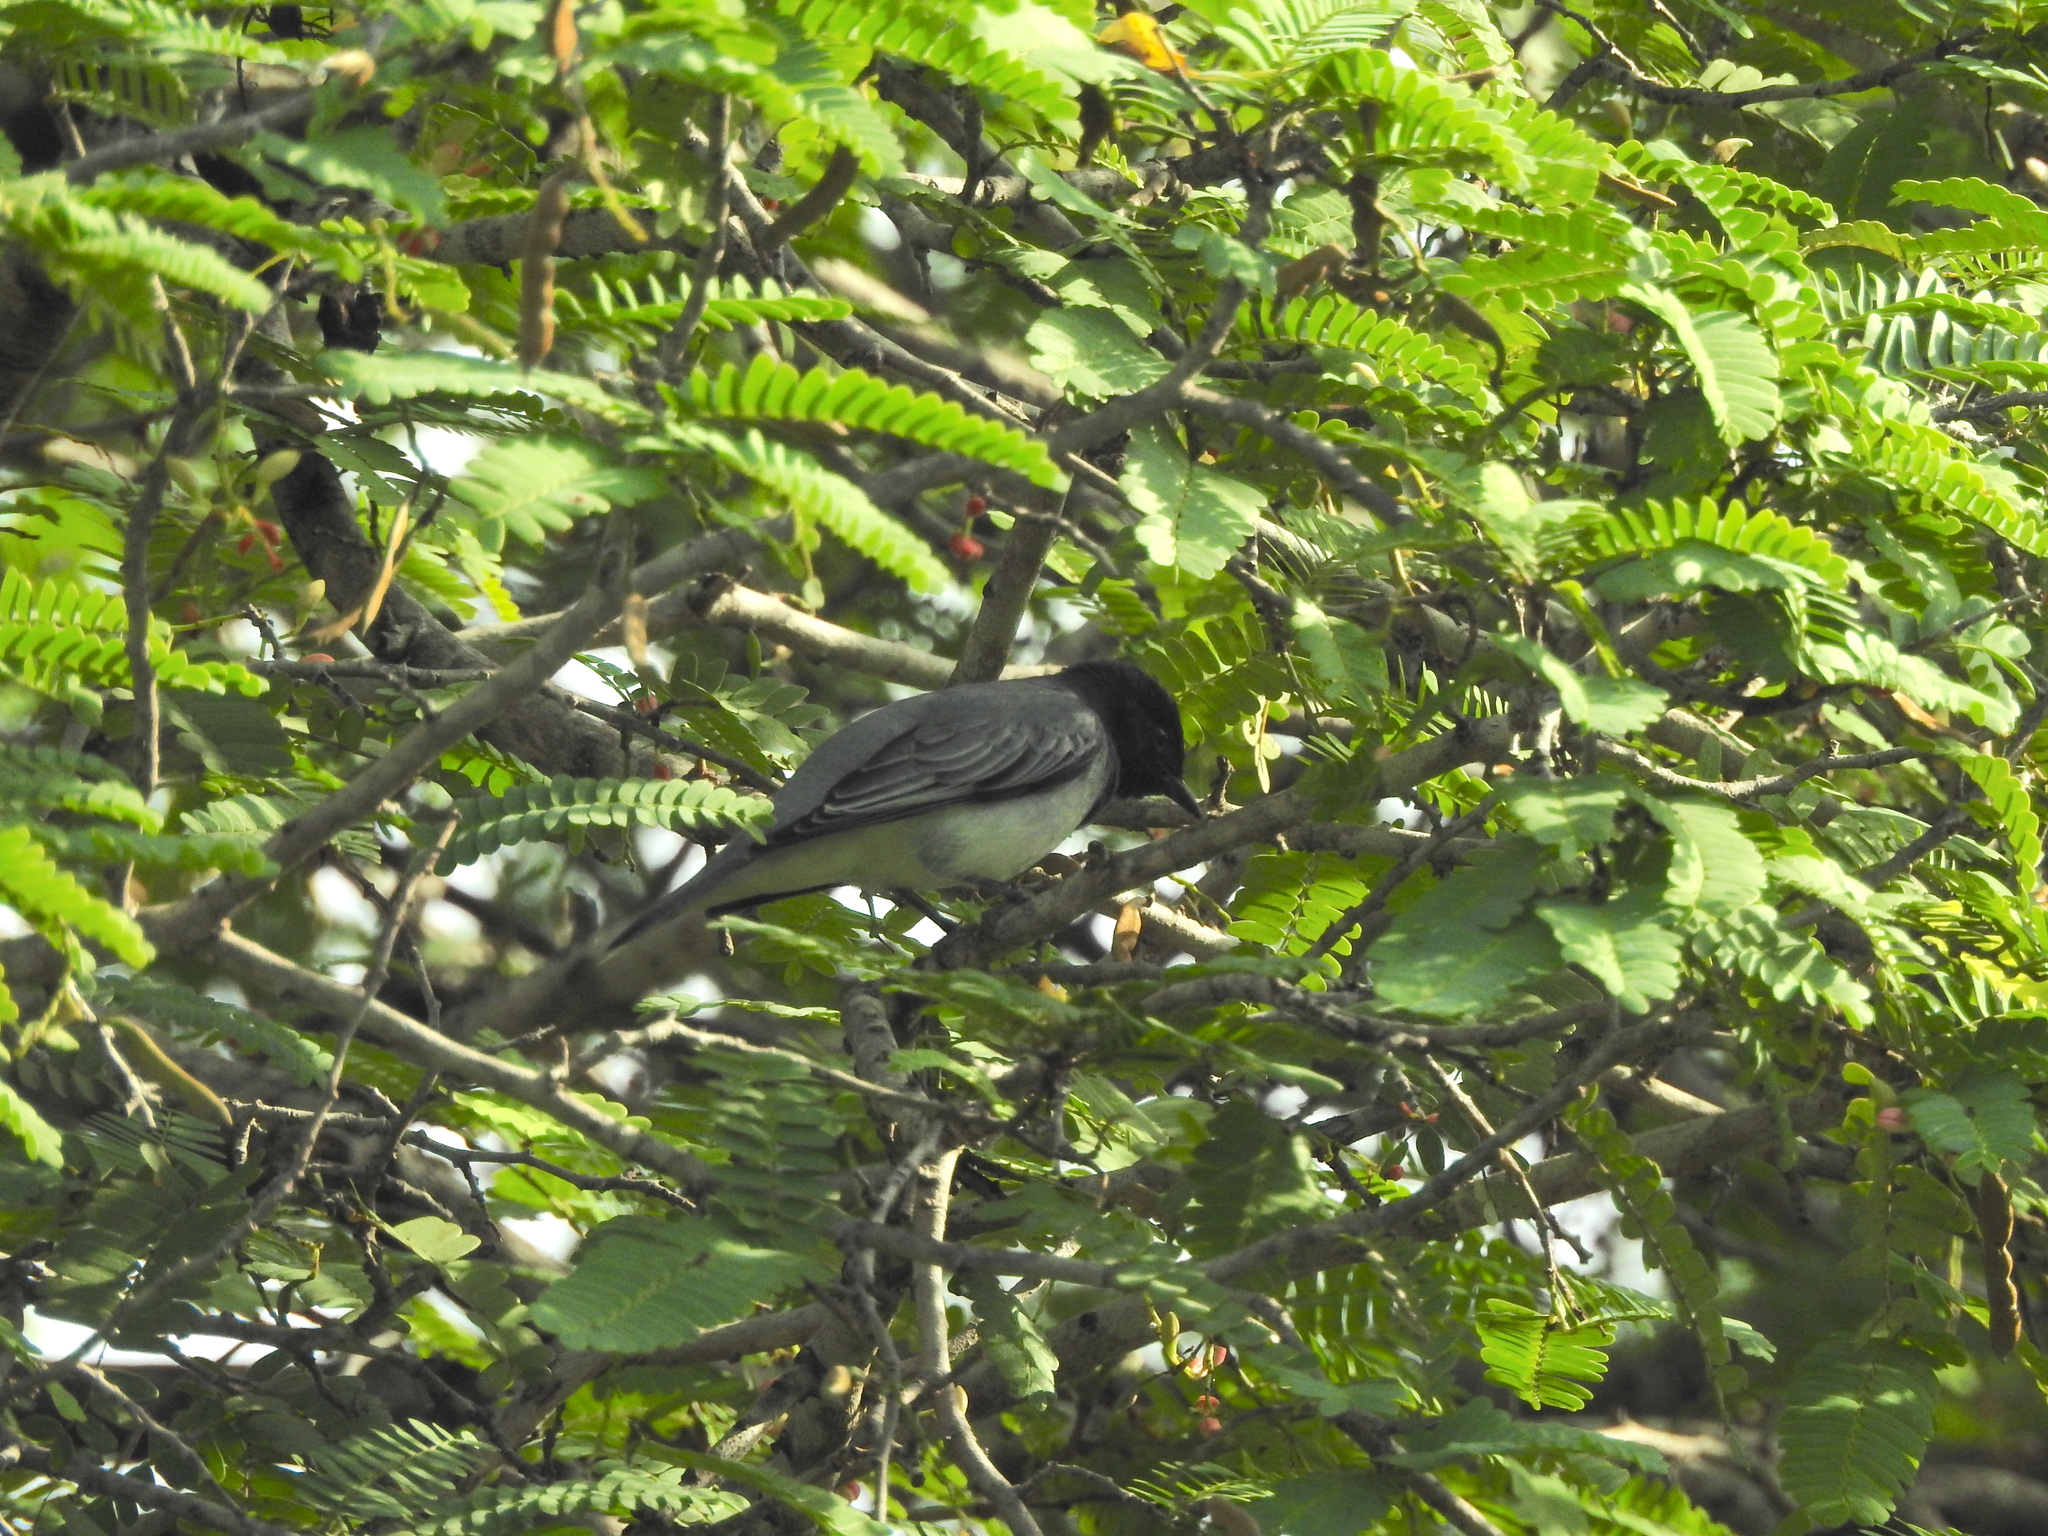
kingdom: Animalia
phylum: Chordata
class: Aves
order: Passeriformes
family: Campephagidae
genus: Coracina
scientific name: Coracina melanoptera
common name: Black-headed cuckooshrike
